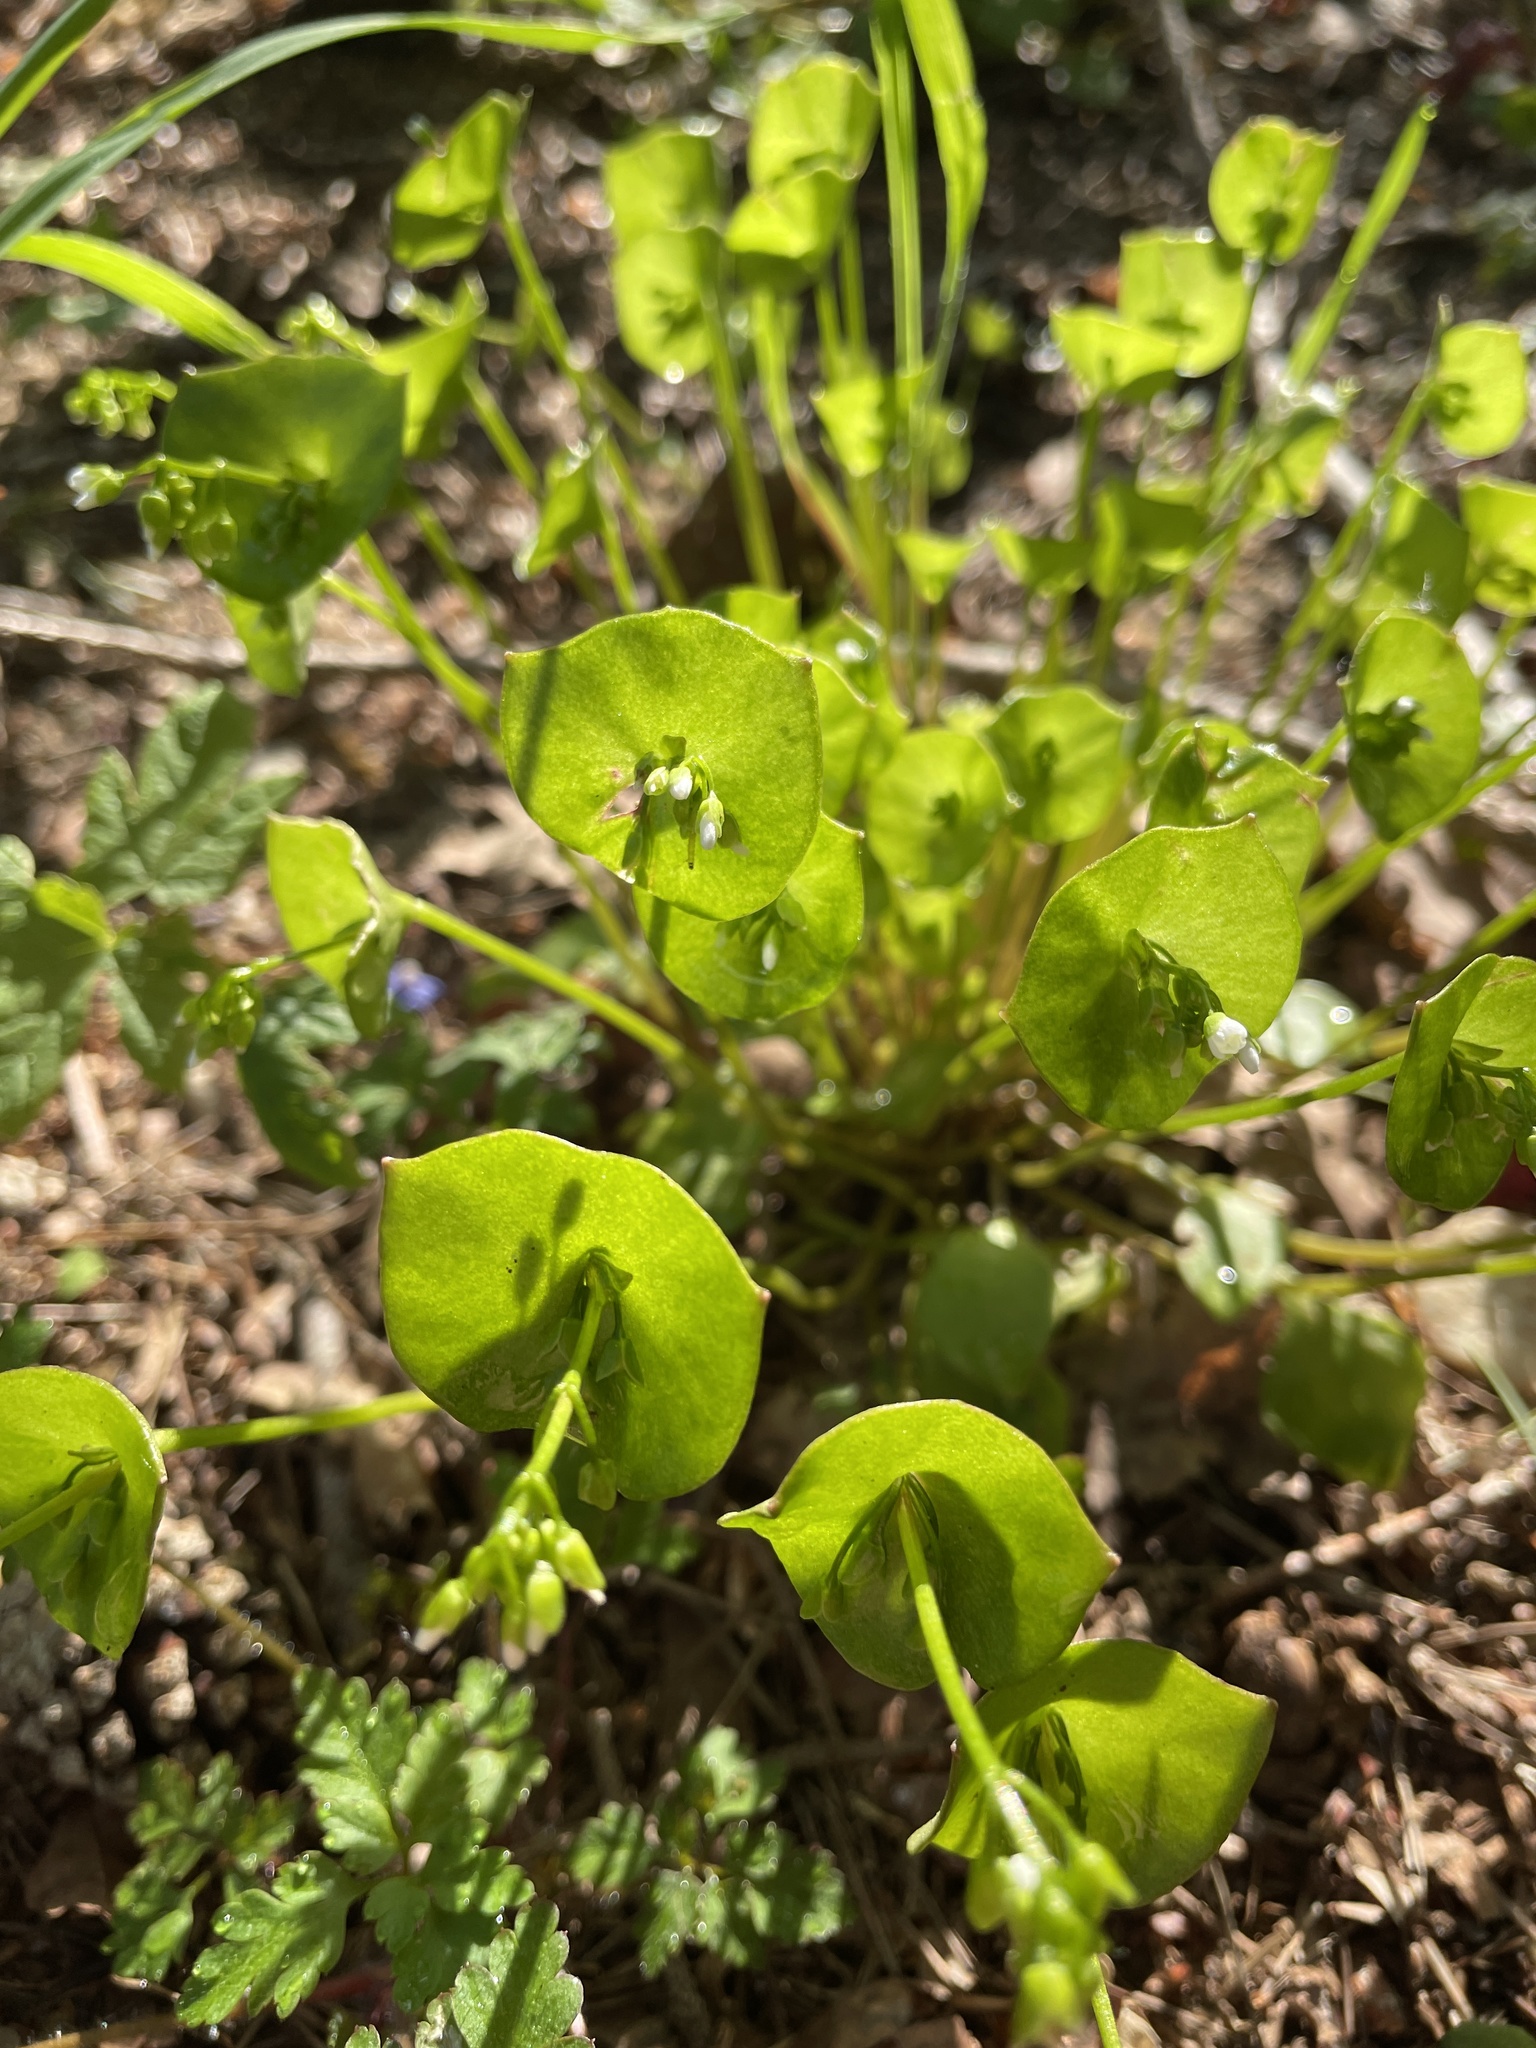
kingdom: Plantae
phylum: Tracheophyta
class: Magnoliopsida
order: Caryophyllales
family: Montiaceae
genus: Claytonia
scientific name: Claytonia perfoliata
